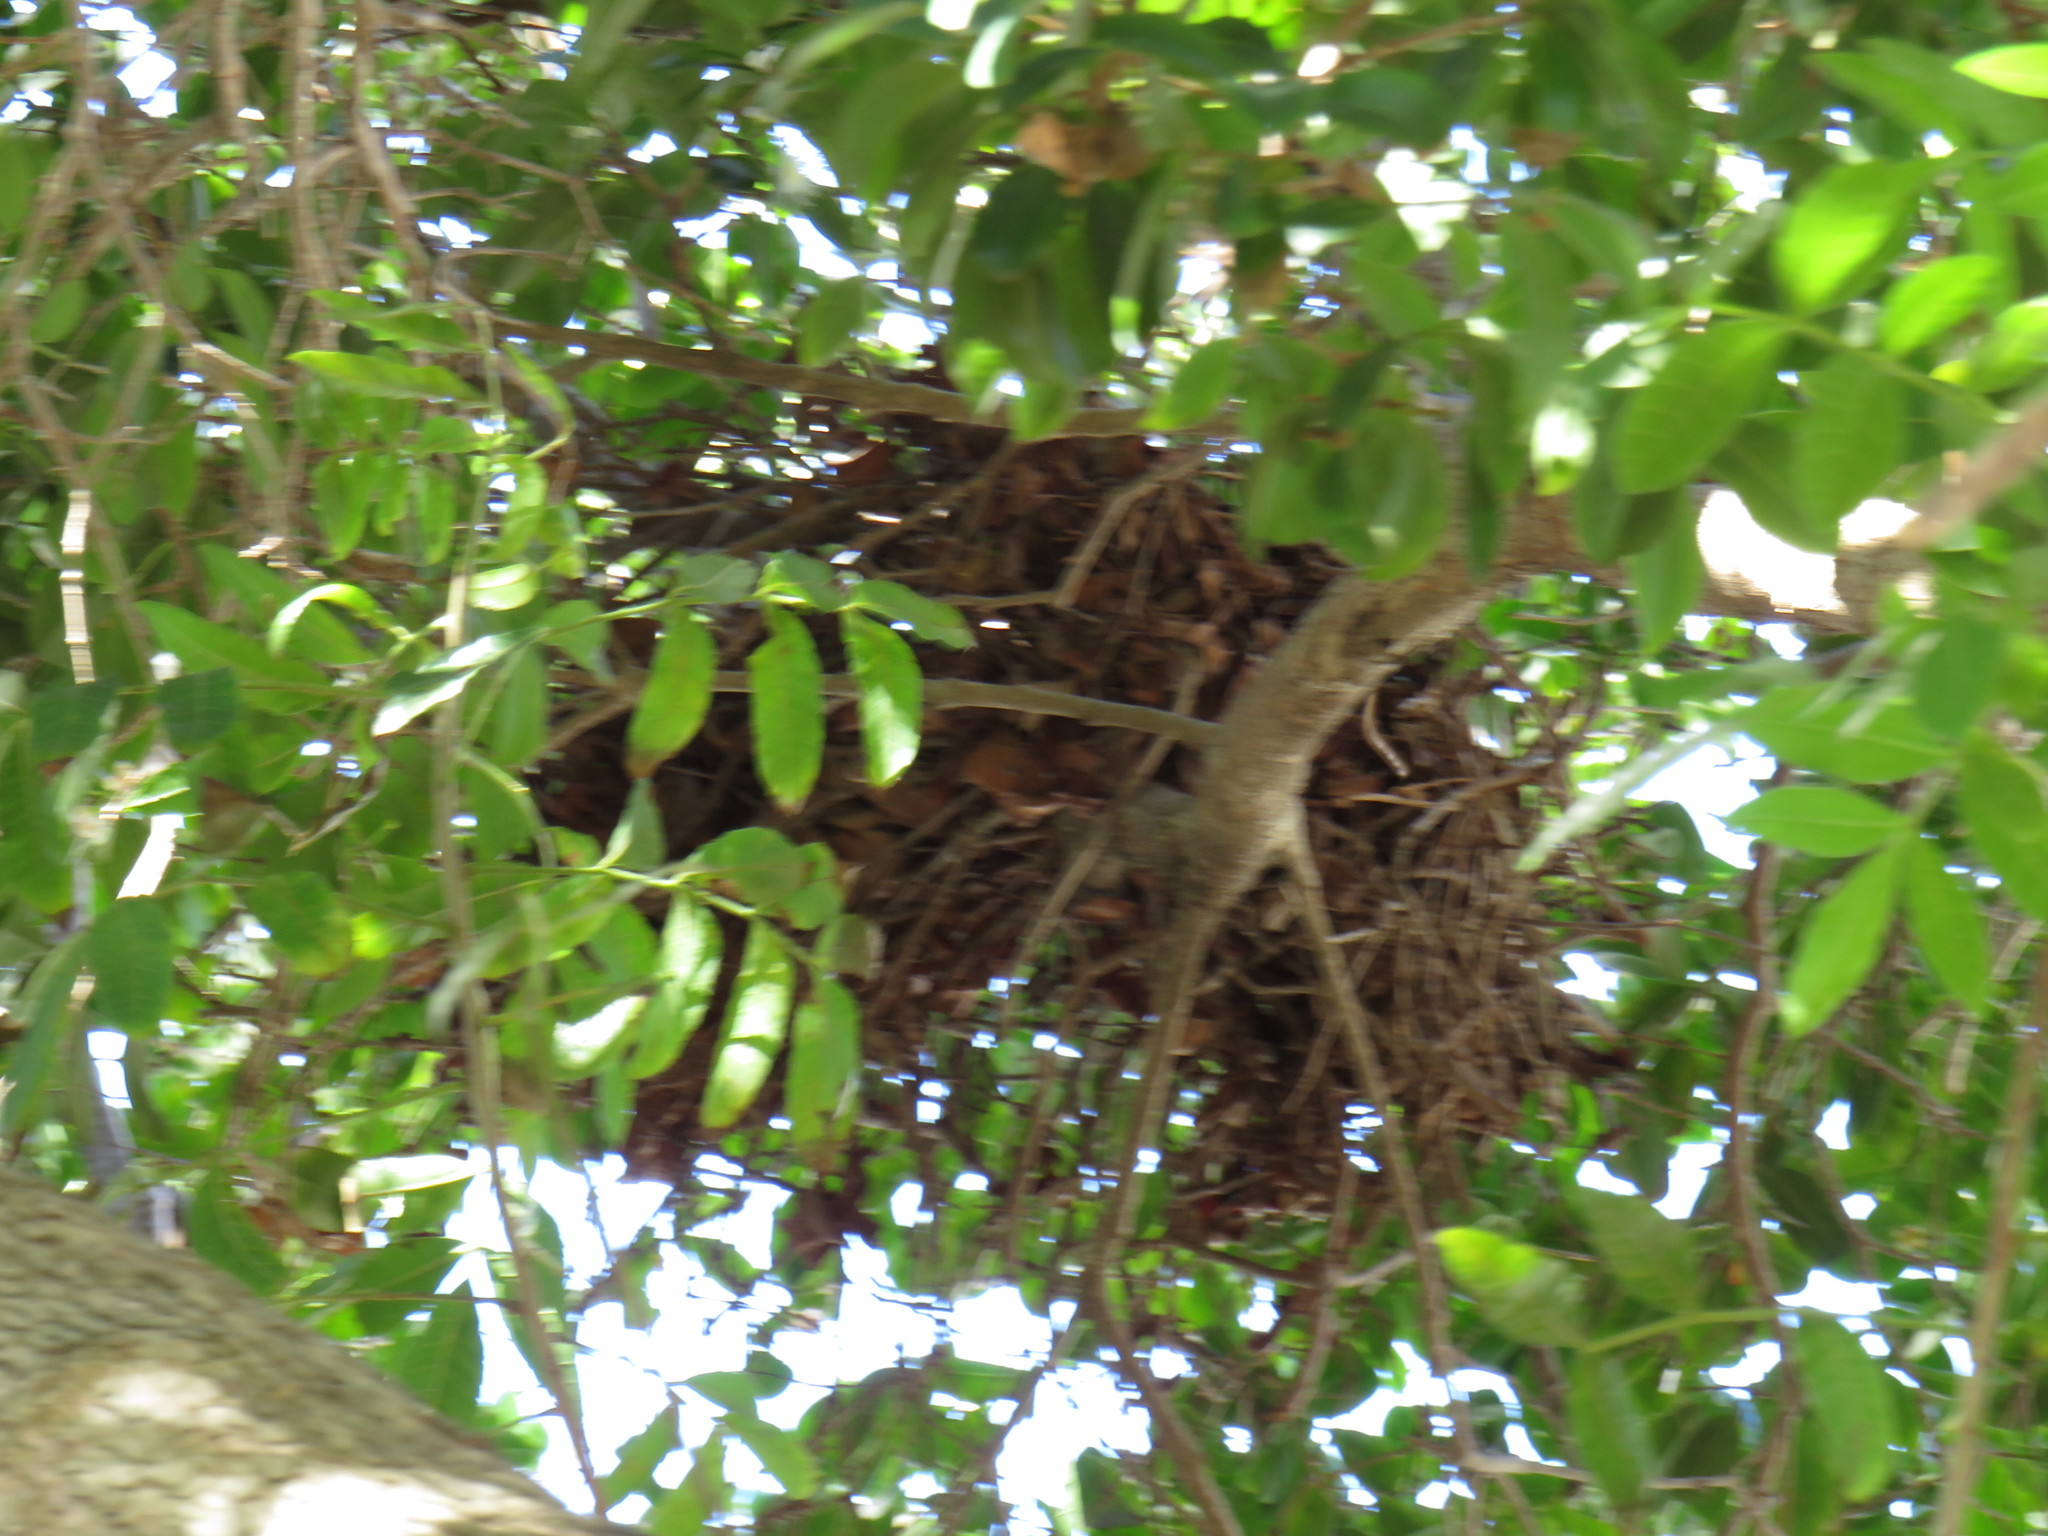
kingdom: Animalia
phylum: Chordata
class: Mammalia
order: Rodentia
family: Sciuridae
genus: Sciurus
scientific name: Sciurus carolinensis
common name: Eastern gray squirrel
